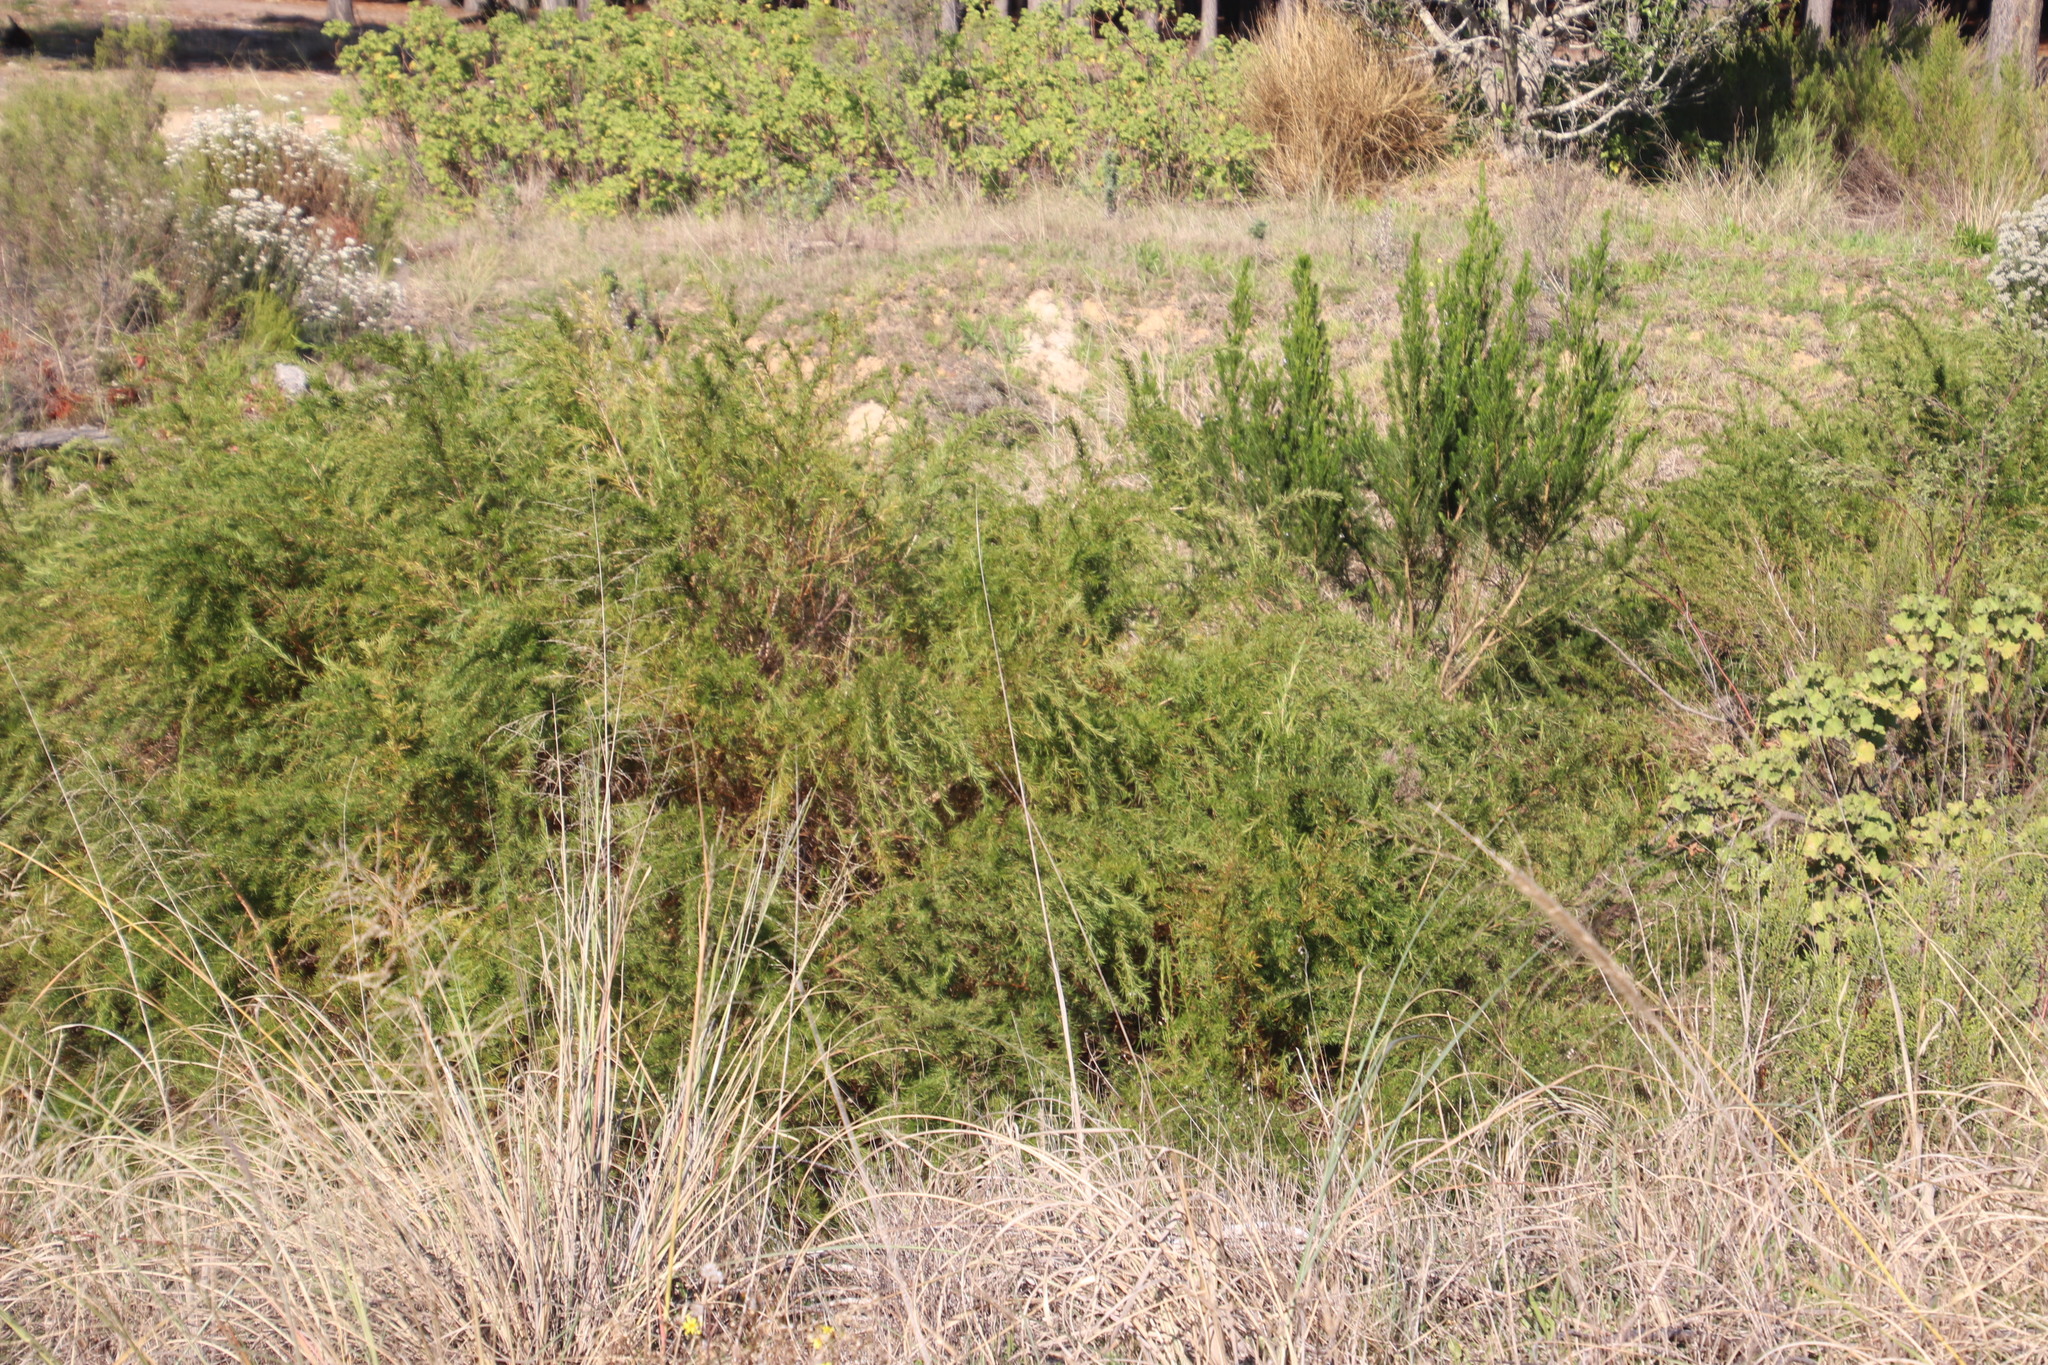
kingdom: Plantae
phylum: Tracheophyta
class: Magnoliopsida
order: Rosales
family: Rosaceae
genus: Cliffortia
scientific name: Cliffortia strobilifera
